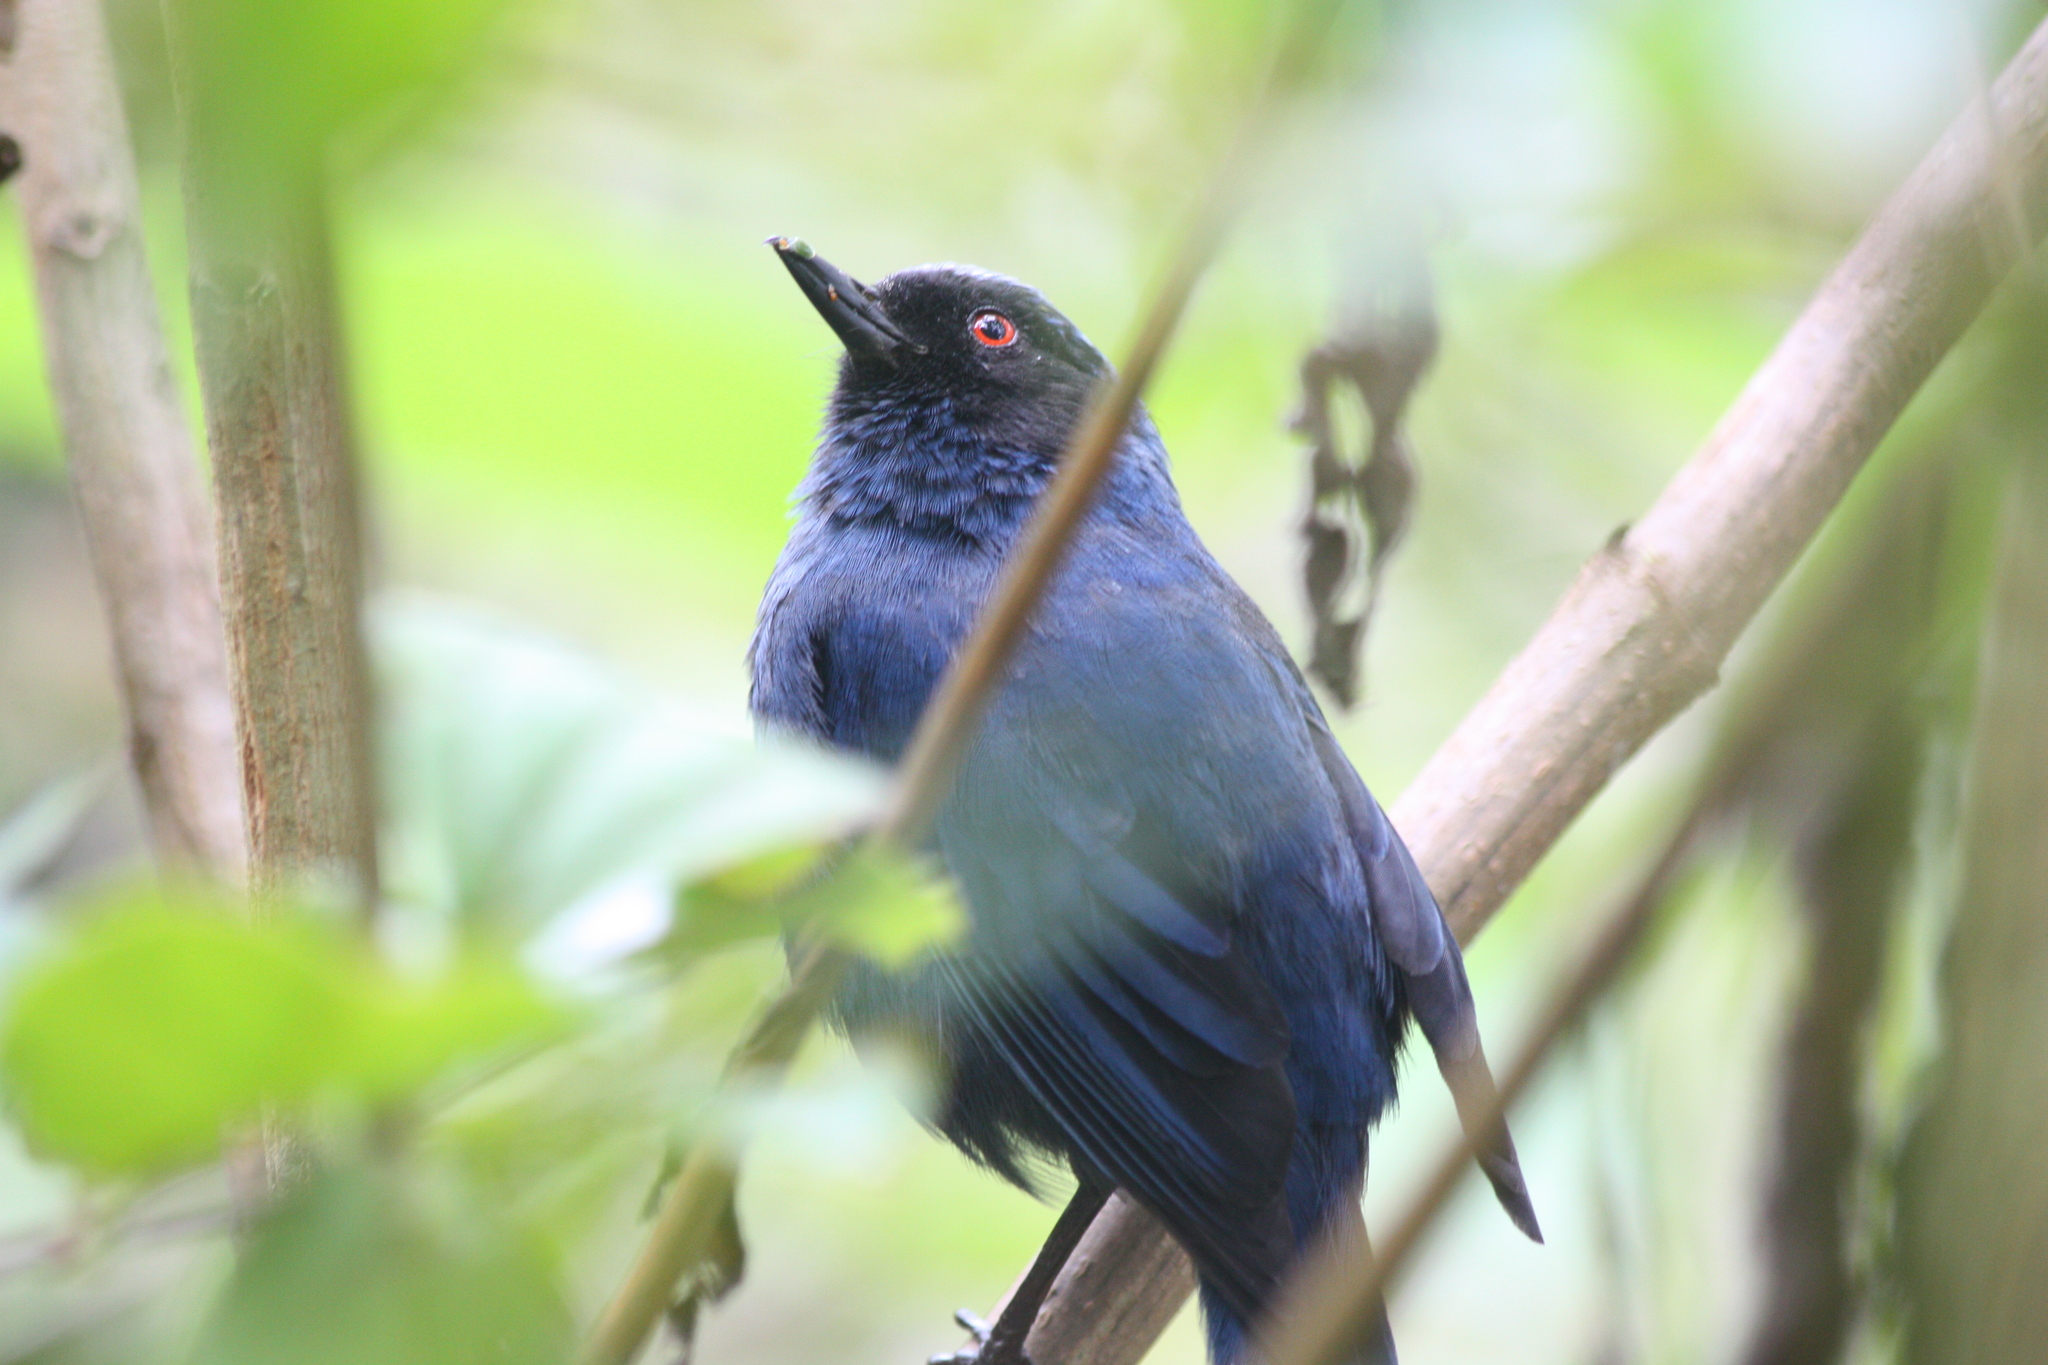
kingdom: Animalia
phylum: Chordata
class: Aves
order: Passeriformes
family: Thraupidae
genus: Diglossa
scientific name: Diglossa cyanea
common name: Masked flowerpiercer
